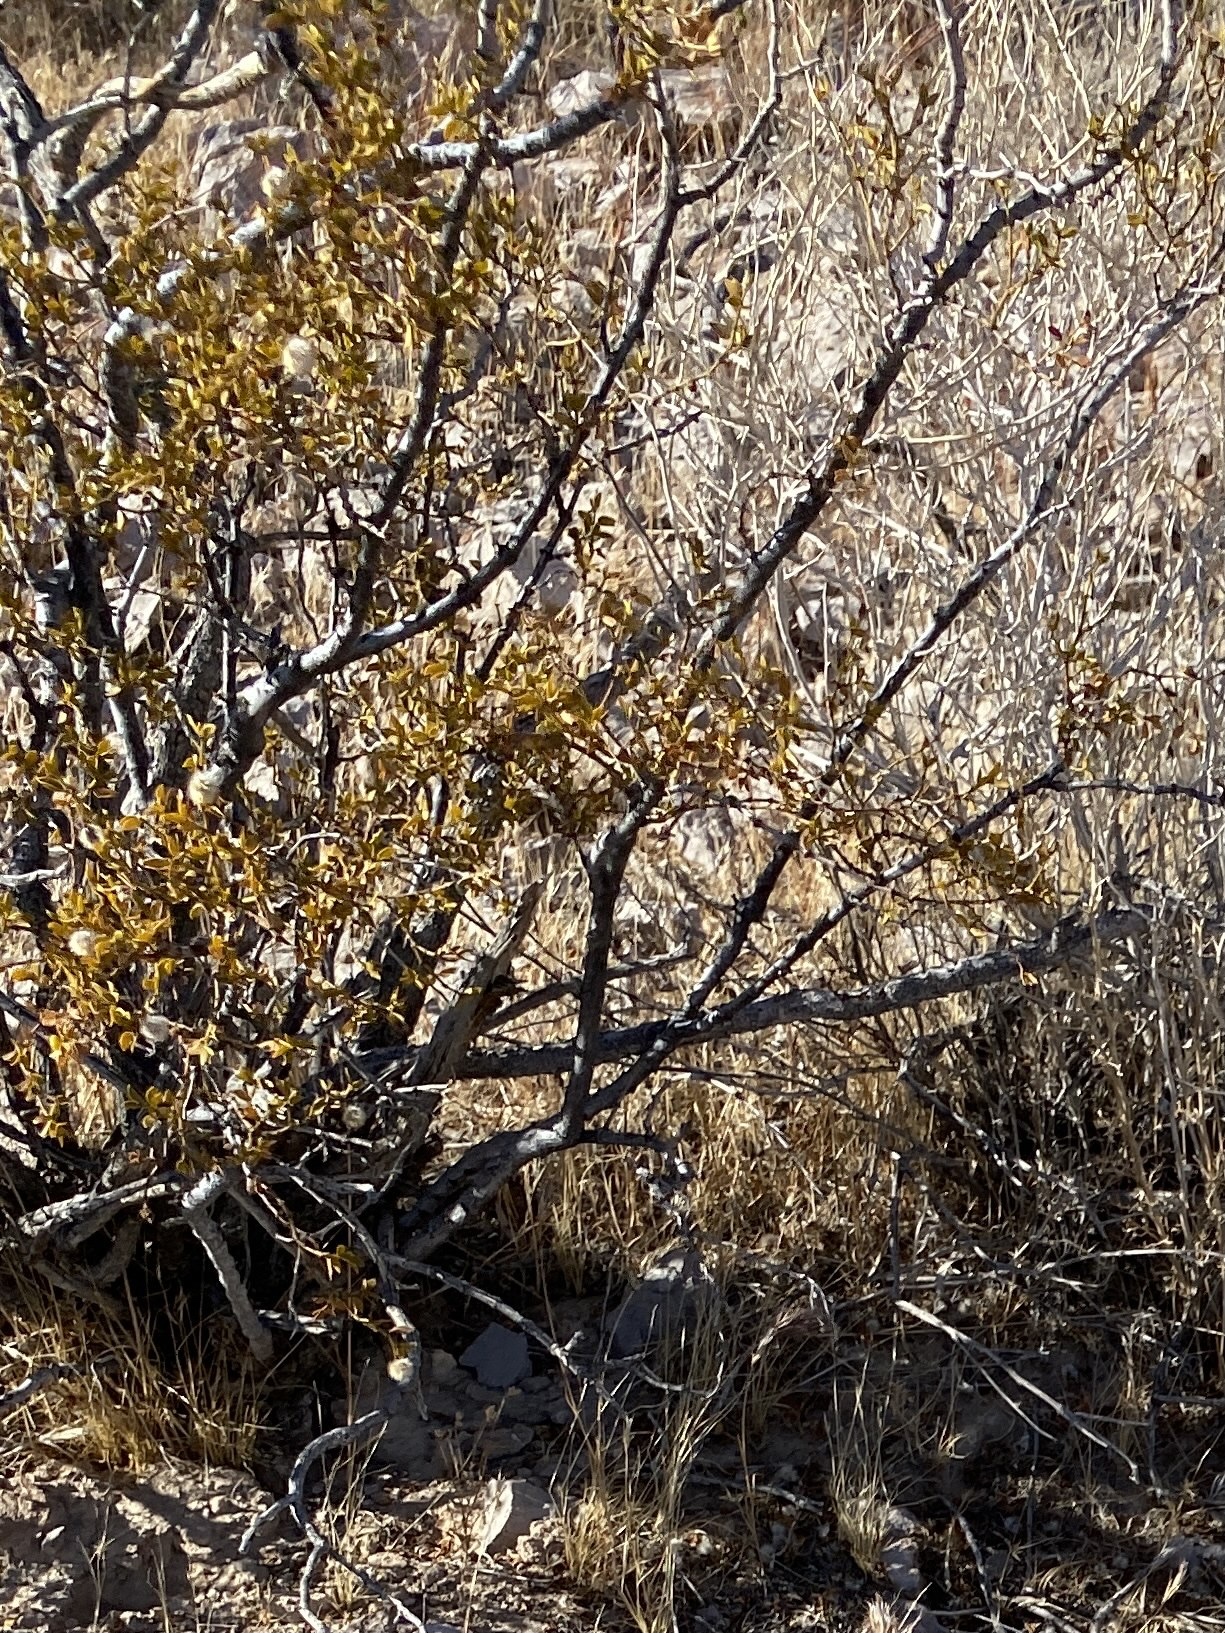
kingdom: Plantae
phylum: Tracheophyta
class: Magnoliopsida
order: Zygophyllales
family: Zygophyllaceae
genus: Larrea
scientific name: Larrea tridentata
